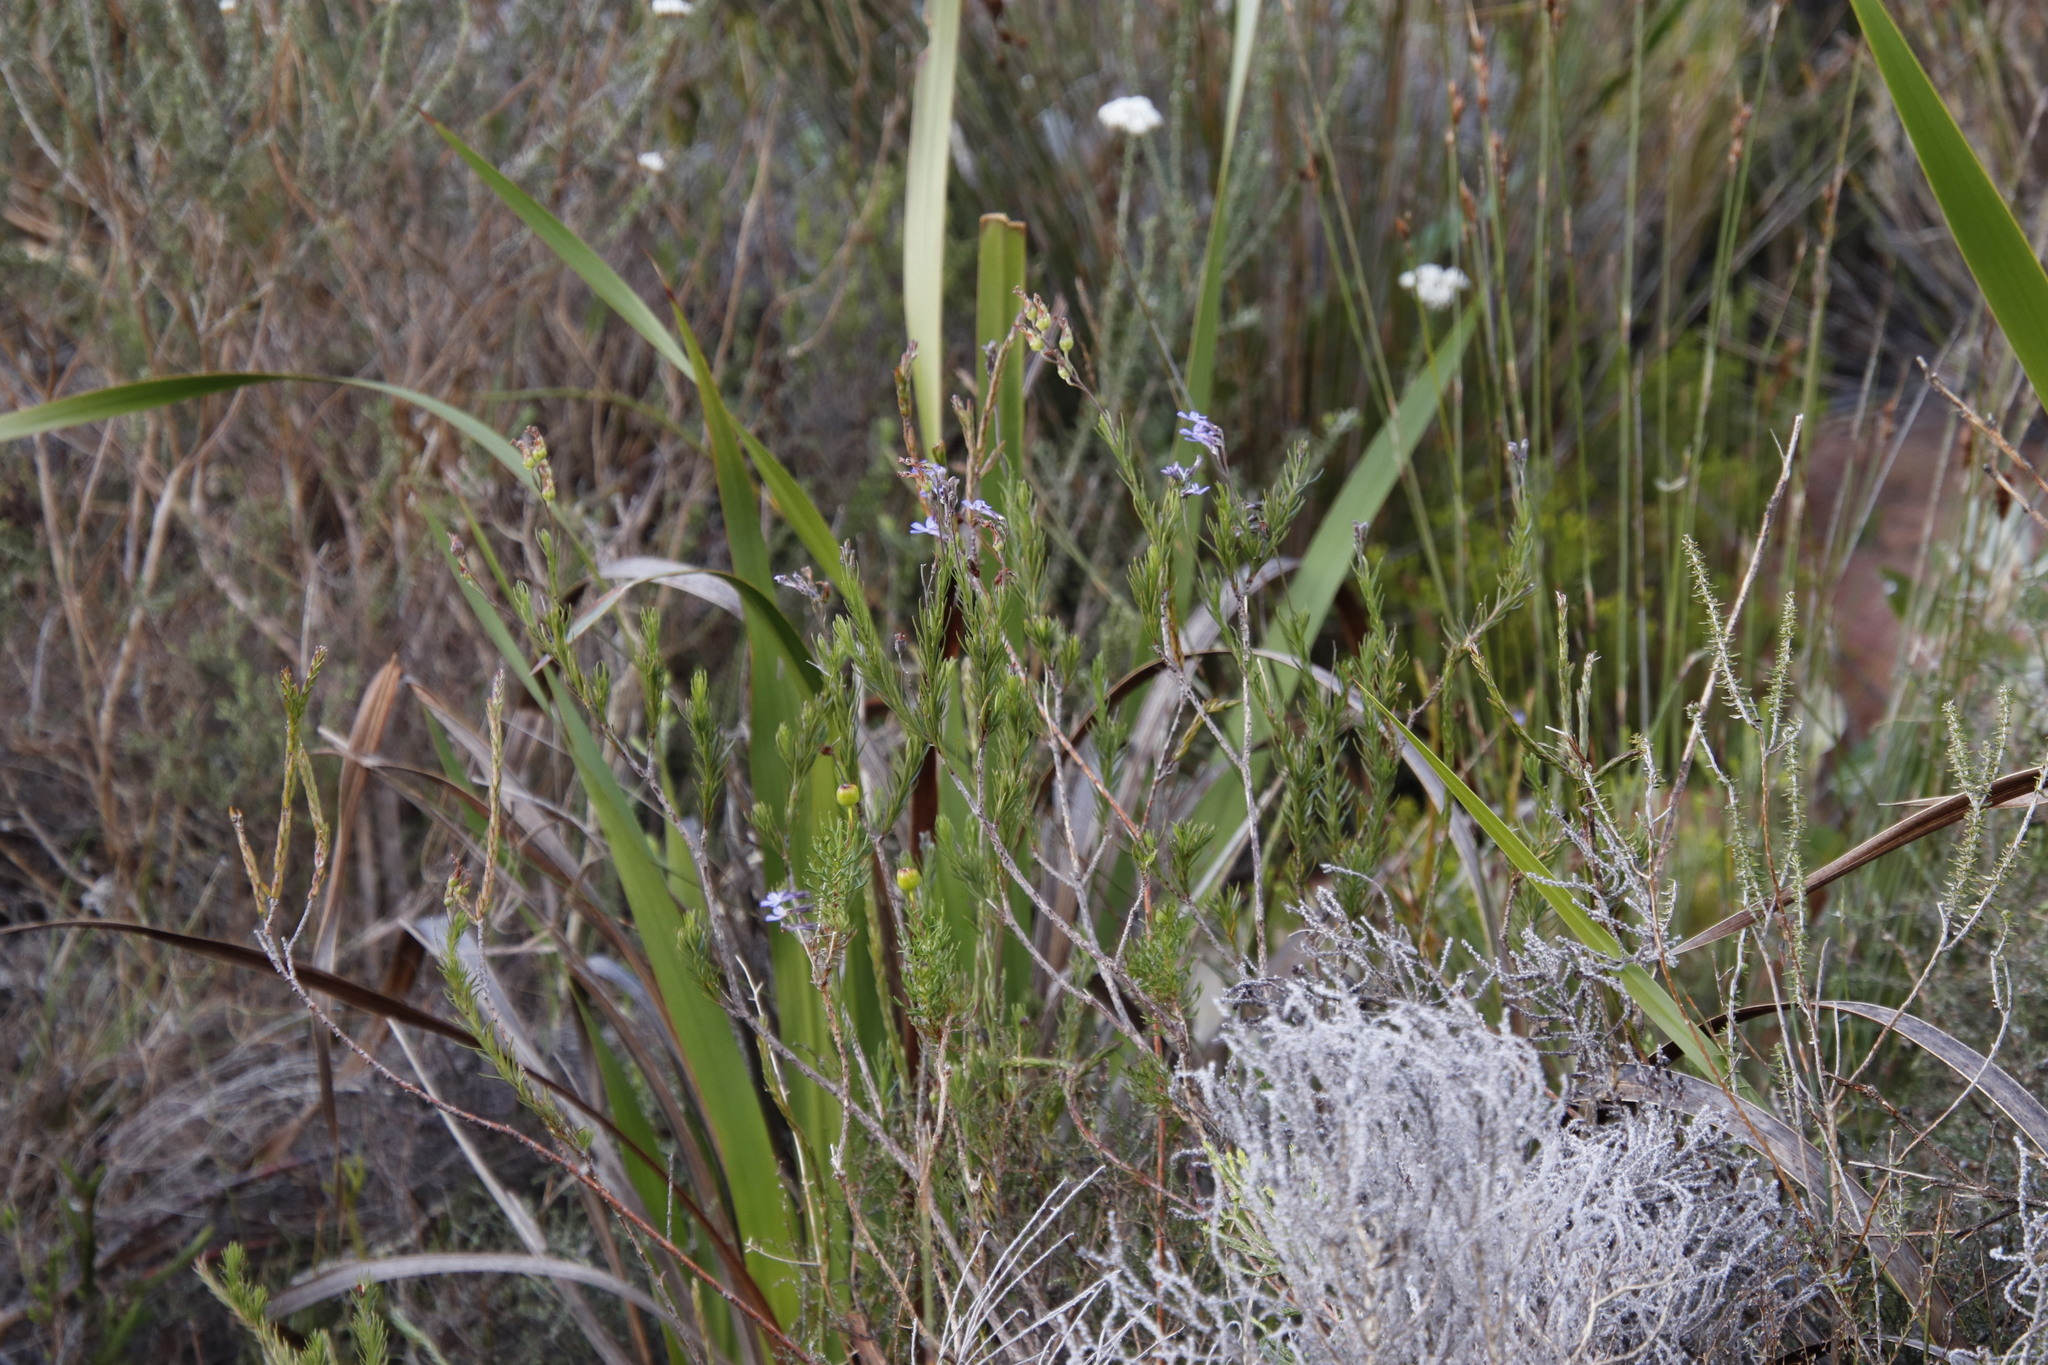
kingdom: Plantae
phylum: Tracheophyta
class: Magnoliopsida
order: Asterales
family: Campanulaceae
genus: Lobelia
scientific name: Lobelia pinifolia
